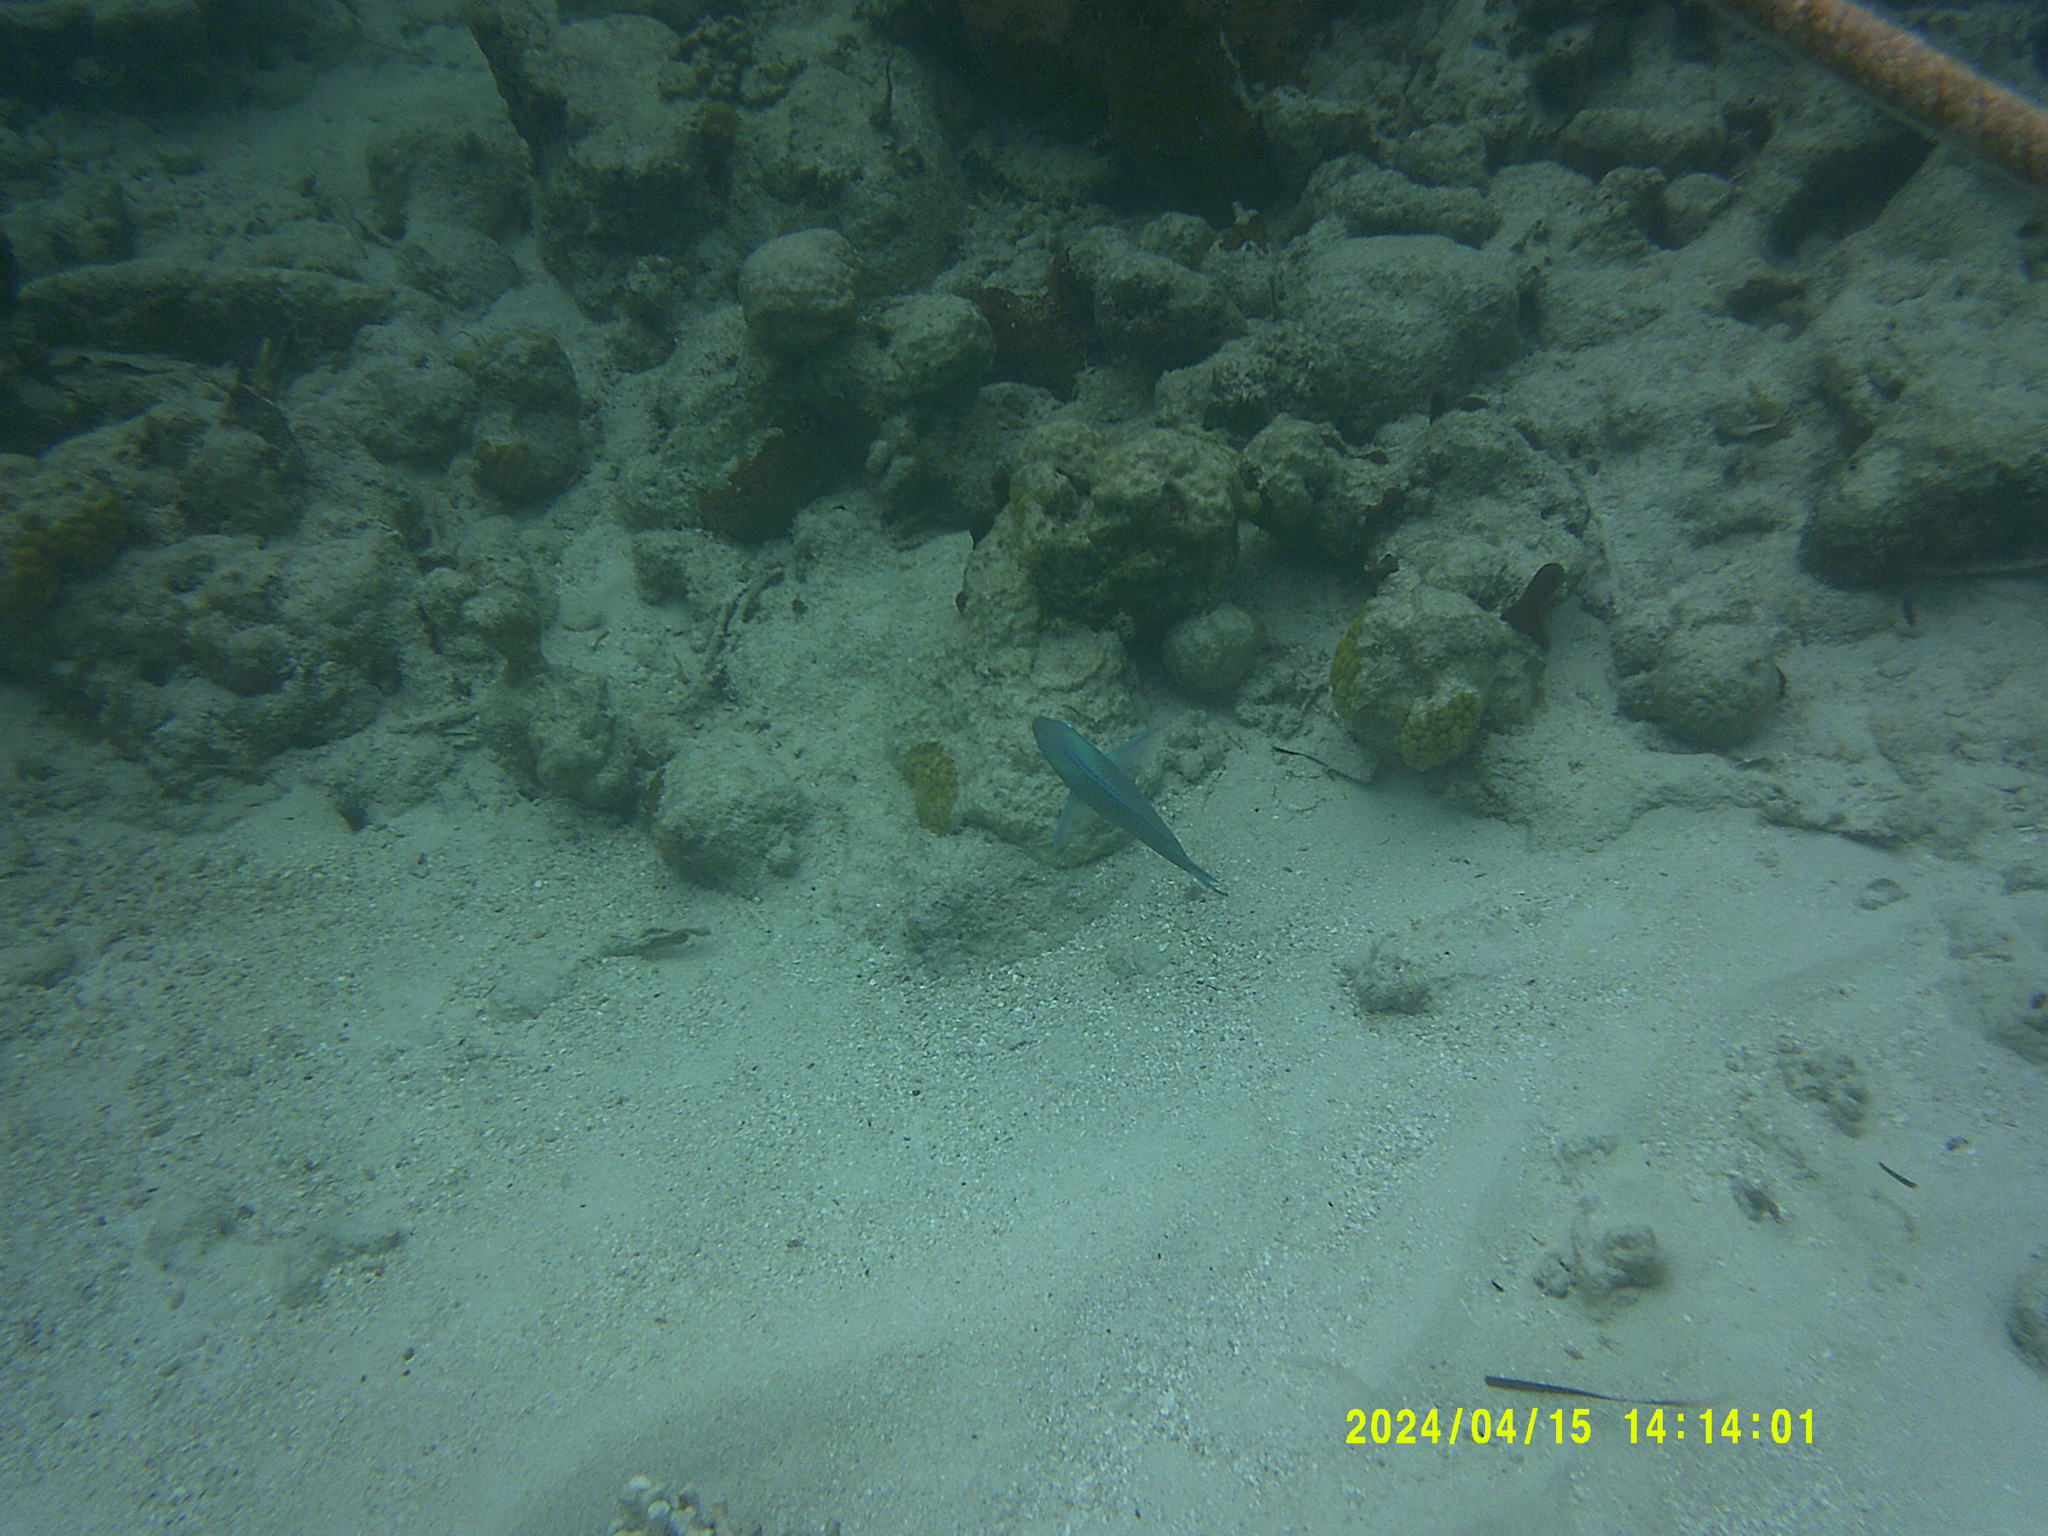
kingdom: Animalia
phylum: Chordata
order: Perciformes
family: Scaridae
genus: Scarus
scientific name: Scarus vetula
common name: Queen parrotfish
